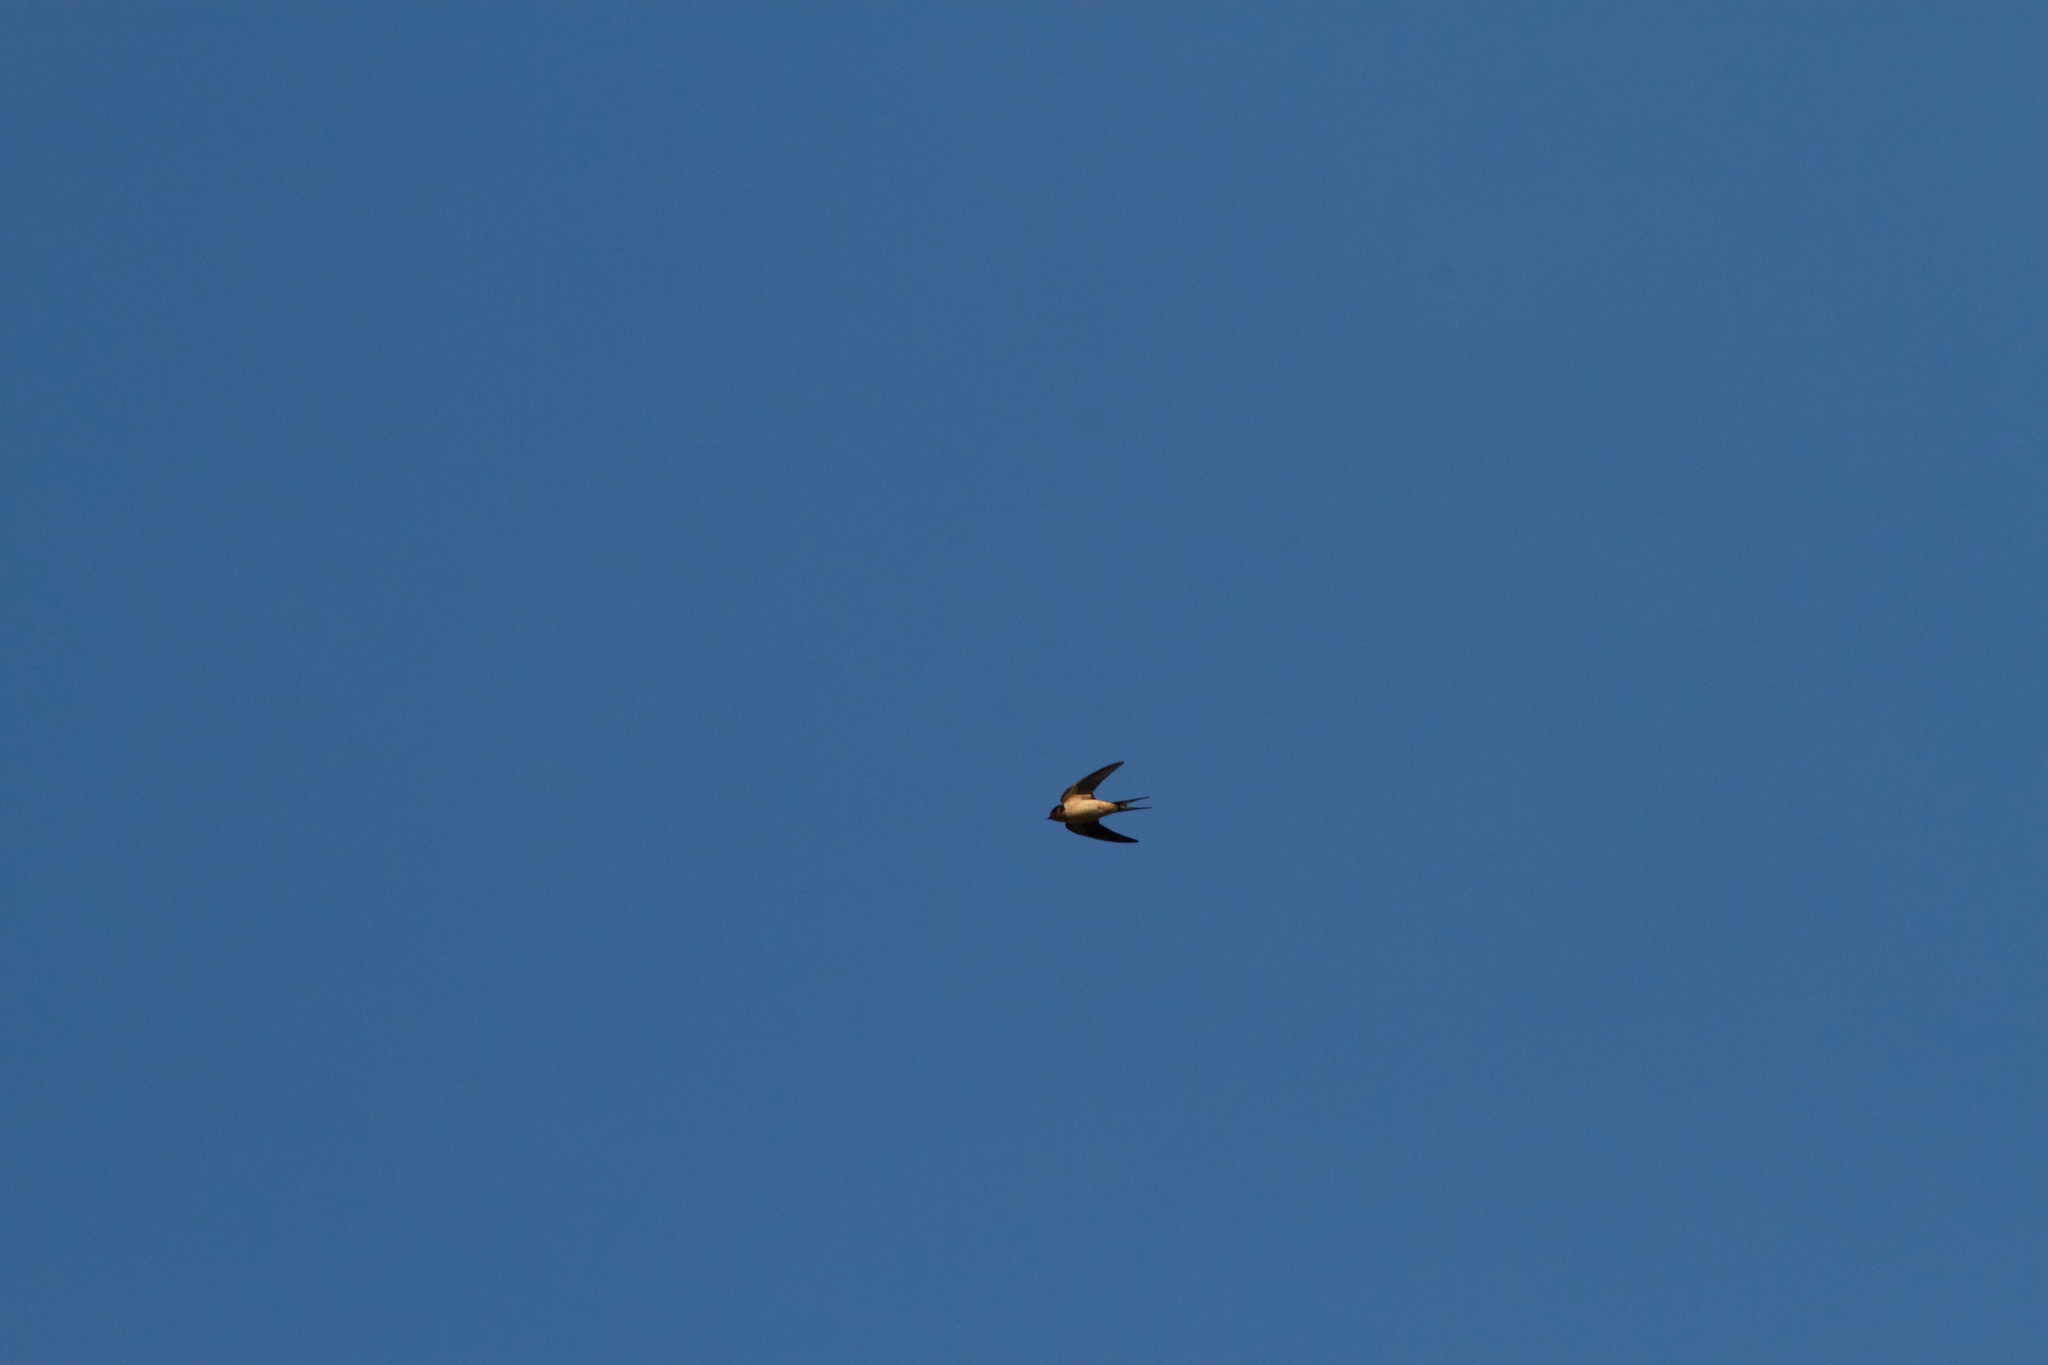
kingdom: Animalia
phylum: Chordata
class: Aves
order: Passeriformes
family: Hirundinidae
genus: Hirundo
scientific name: Hirundo rustica
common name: Barn swallow
